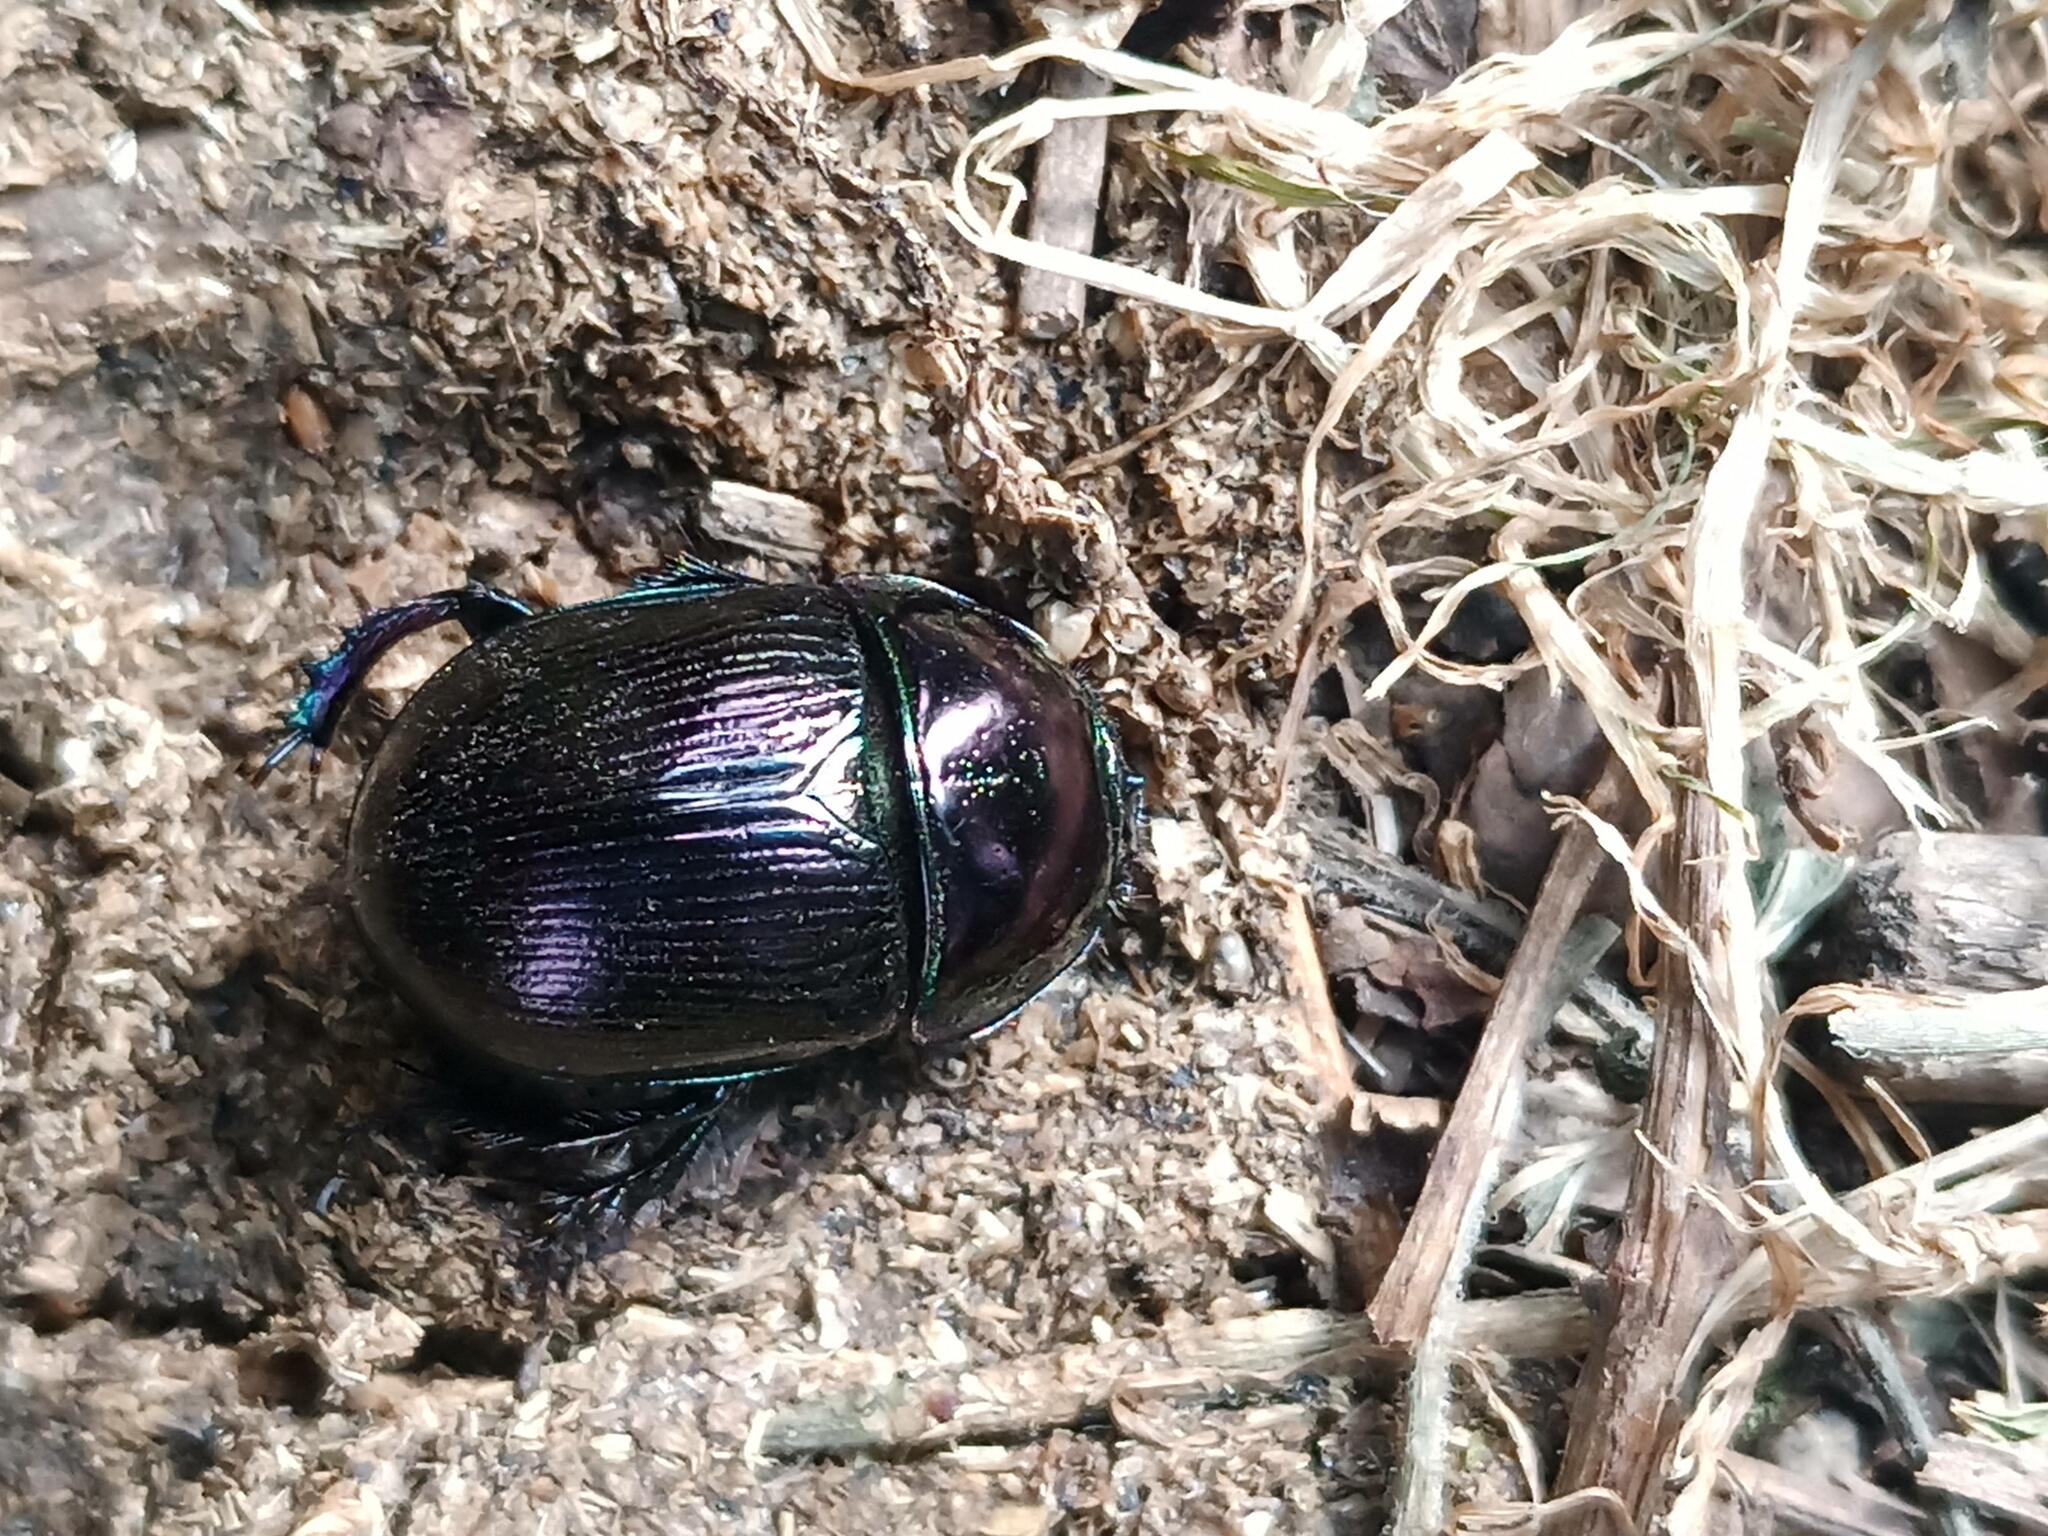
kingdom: Animalia
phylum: Arthropoda
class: Insecta
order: Coleoptera
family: Geotrupidae
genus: Geotrupes
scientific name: Geotrupes mutator
